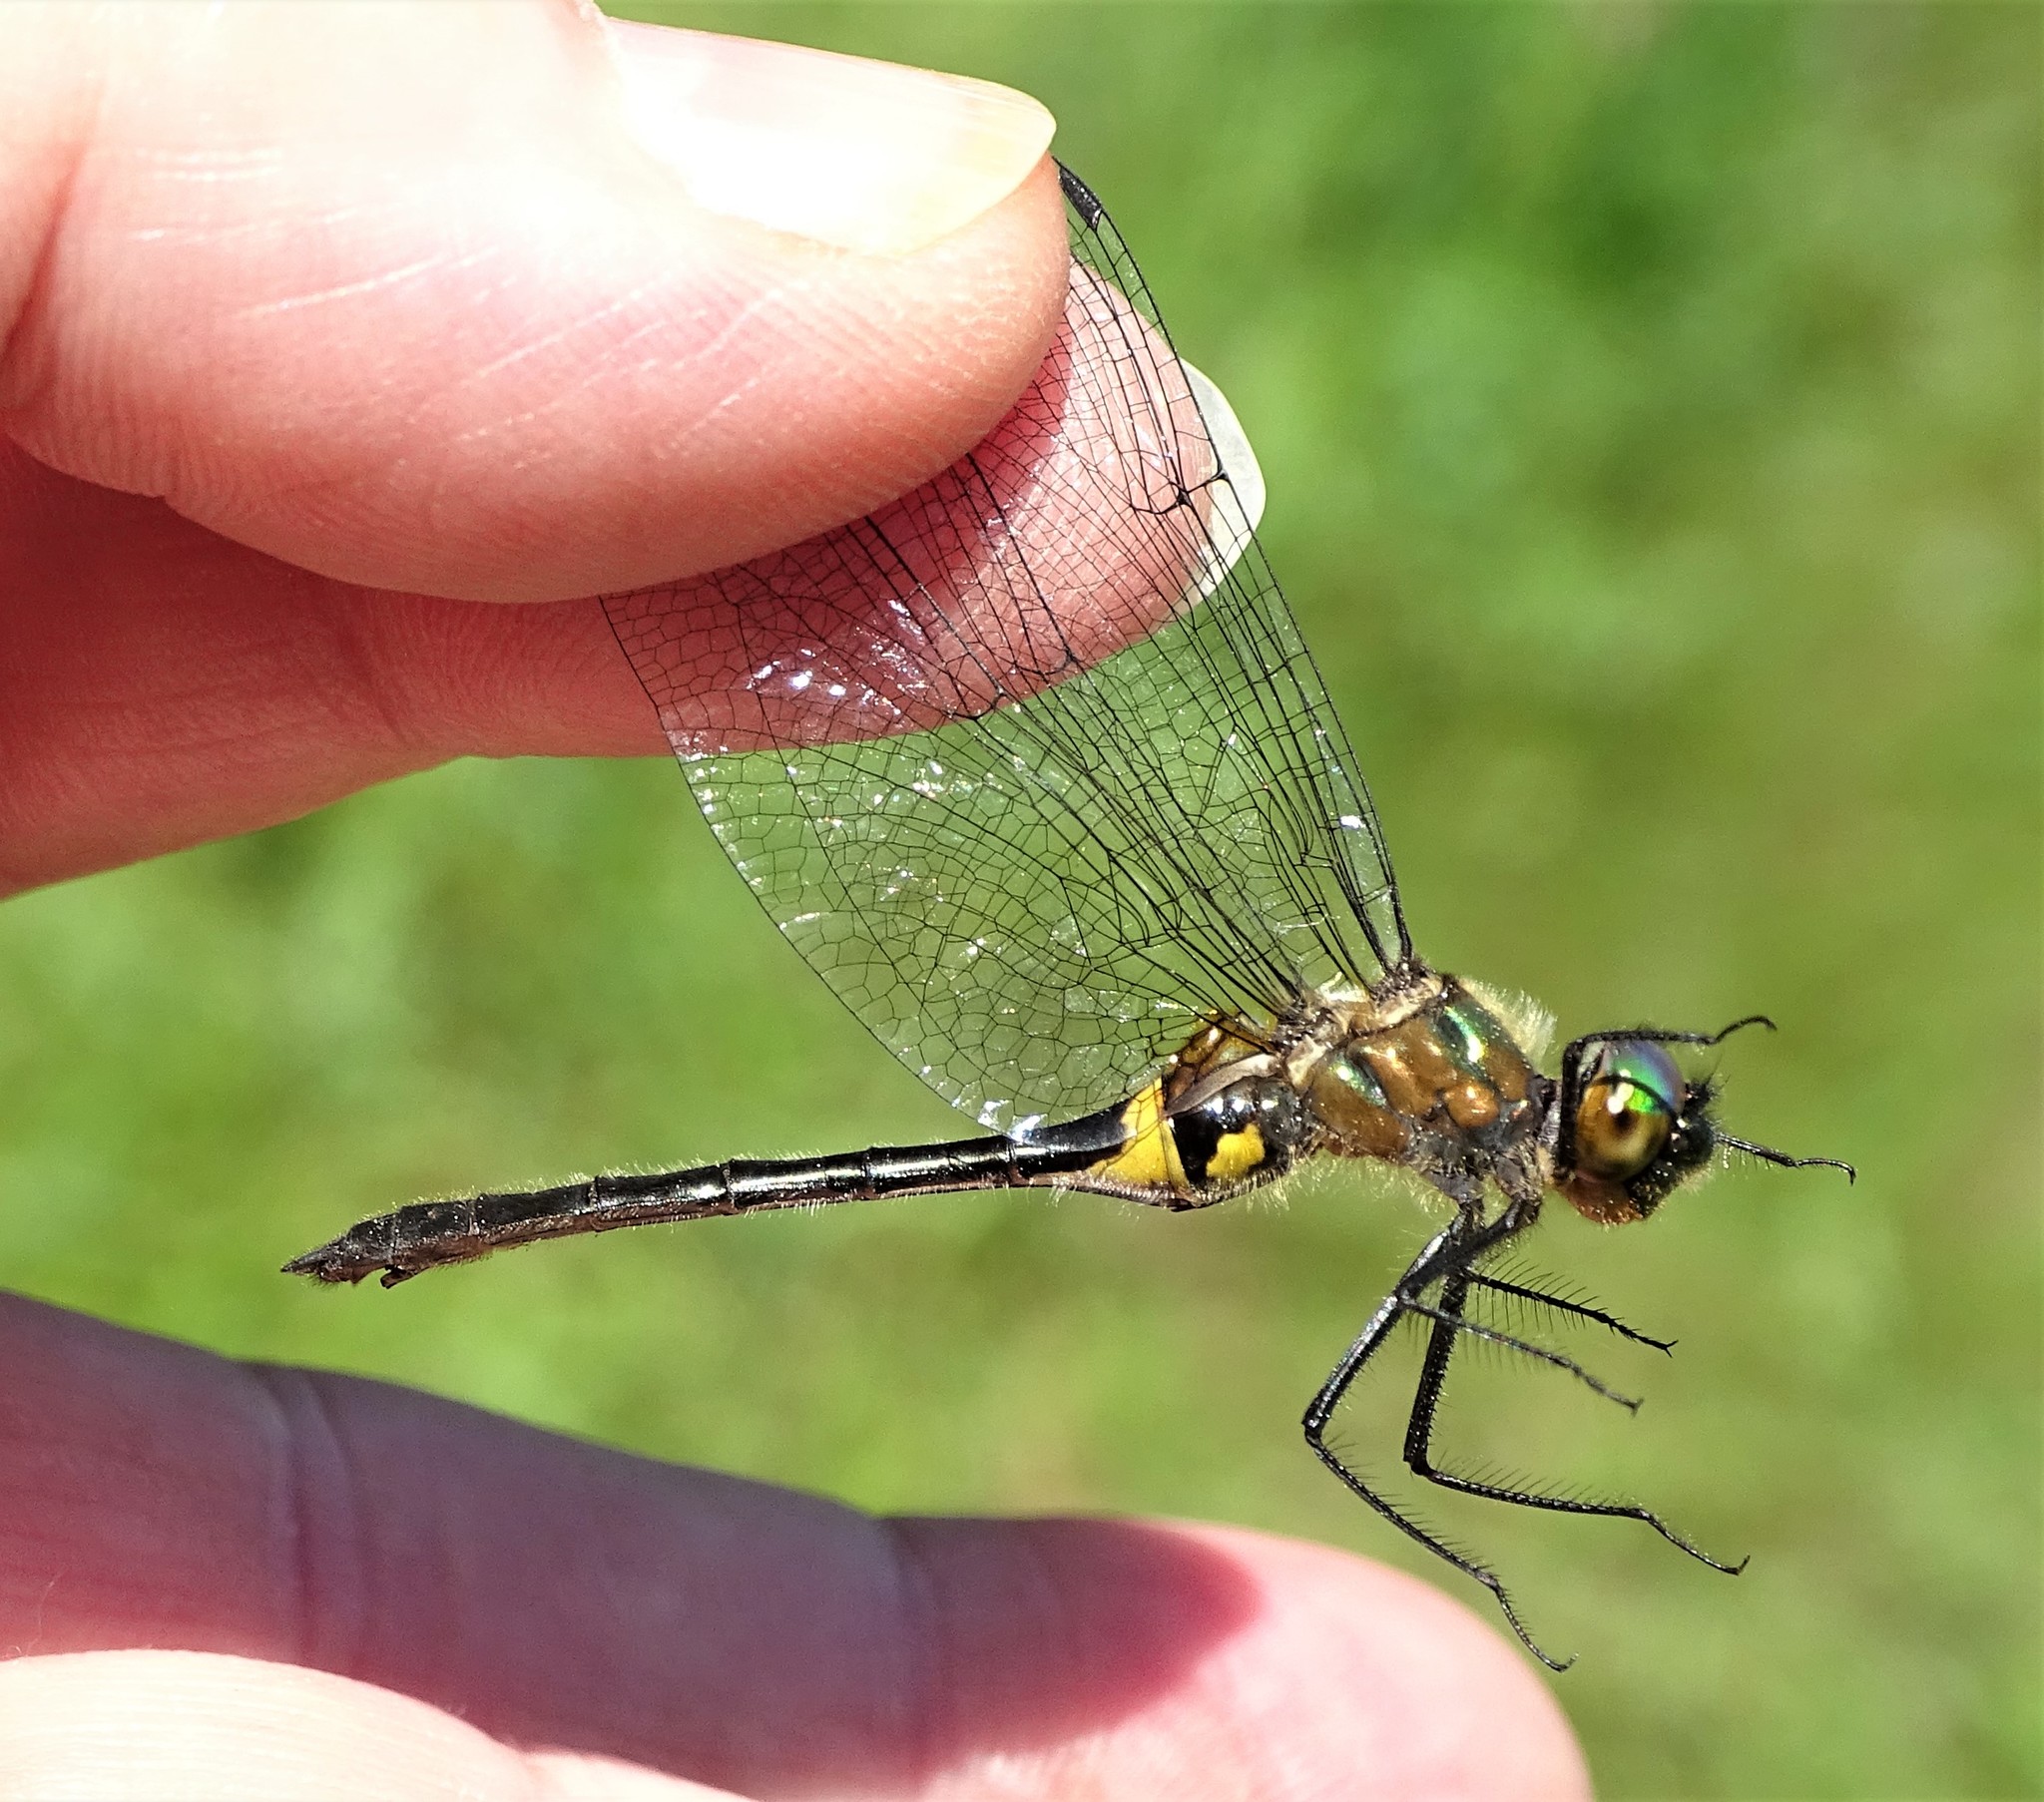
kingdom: Animalia
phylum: Arthropoda
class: Insecta
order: Odonata
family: Corduliidae
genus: Dorocordulia
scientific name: Dorocordulia libera
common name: Racket-tailed emerald
